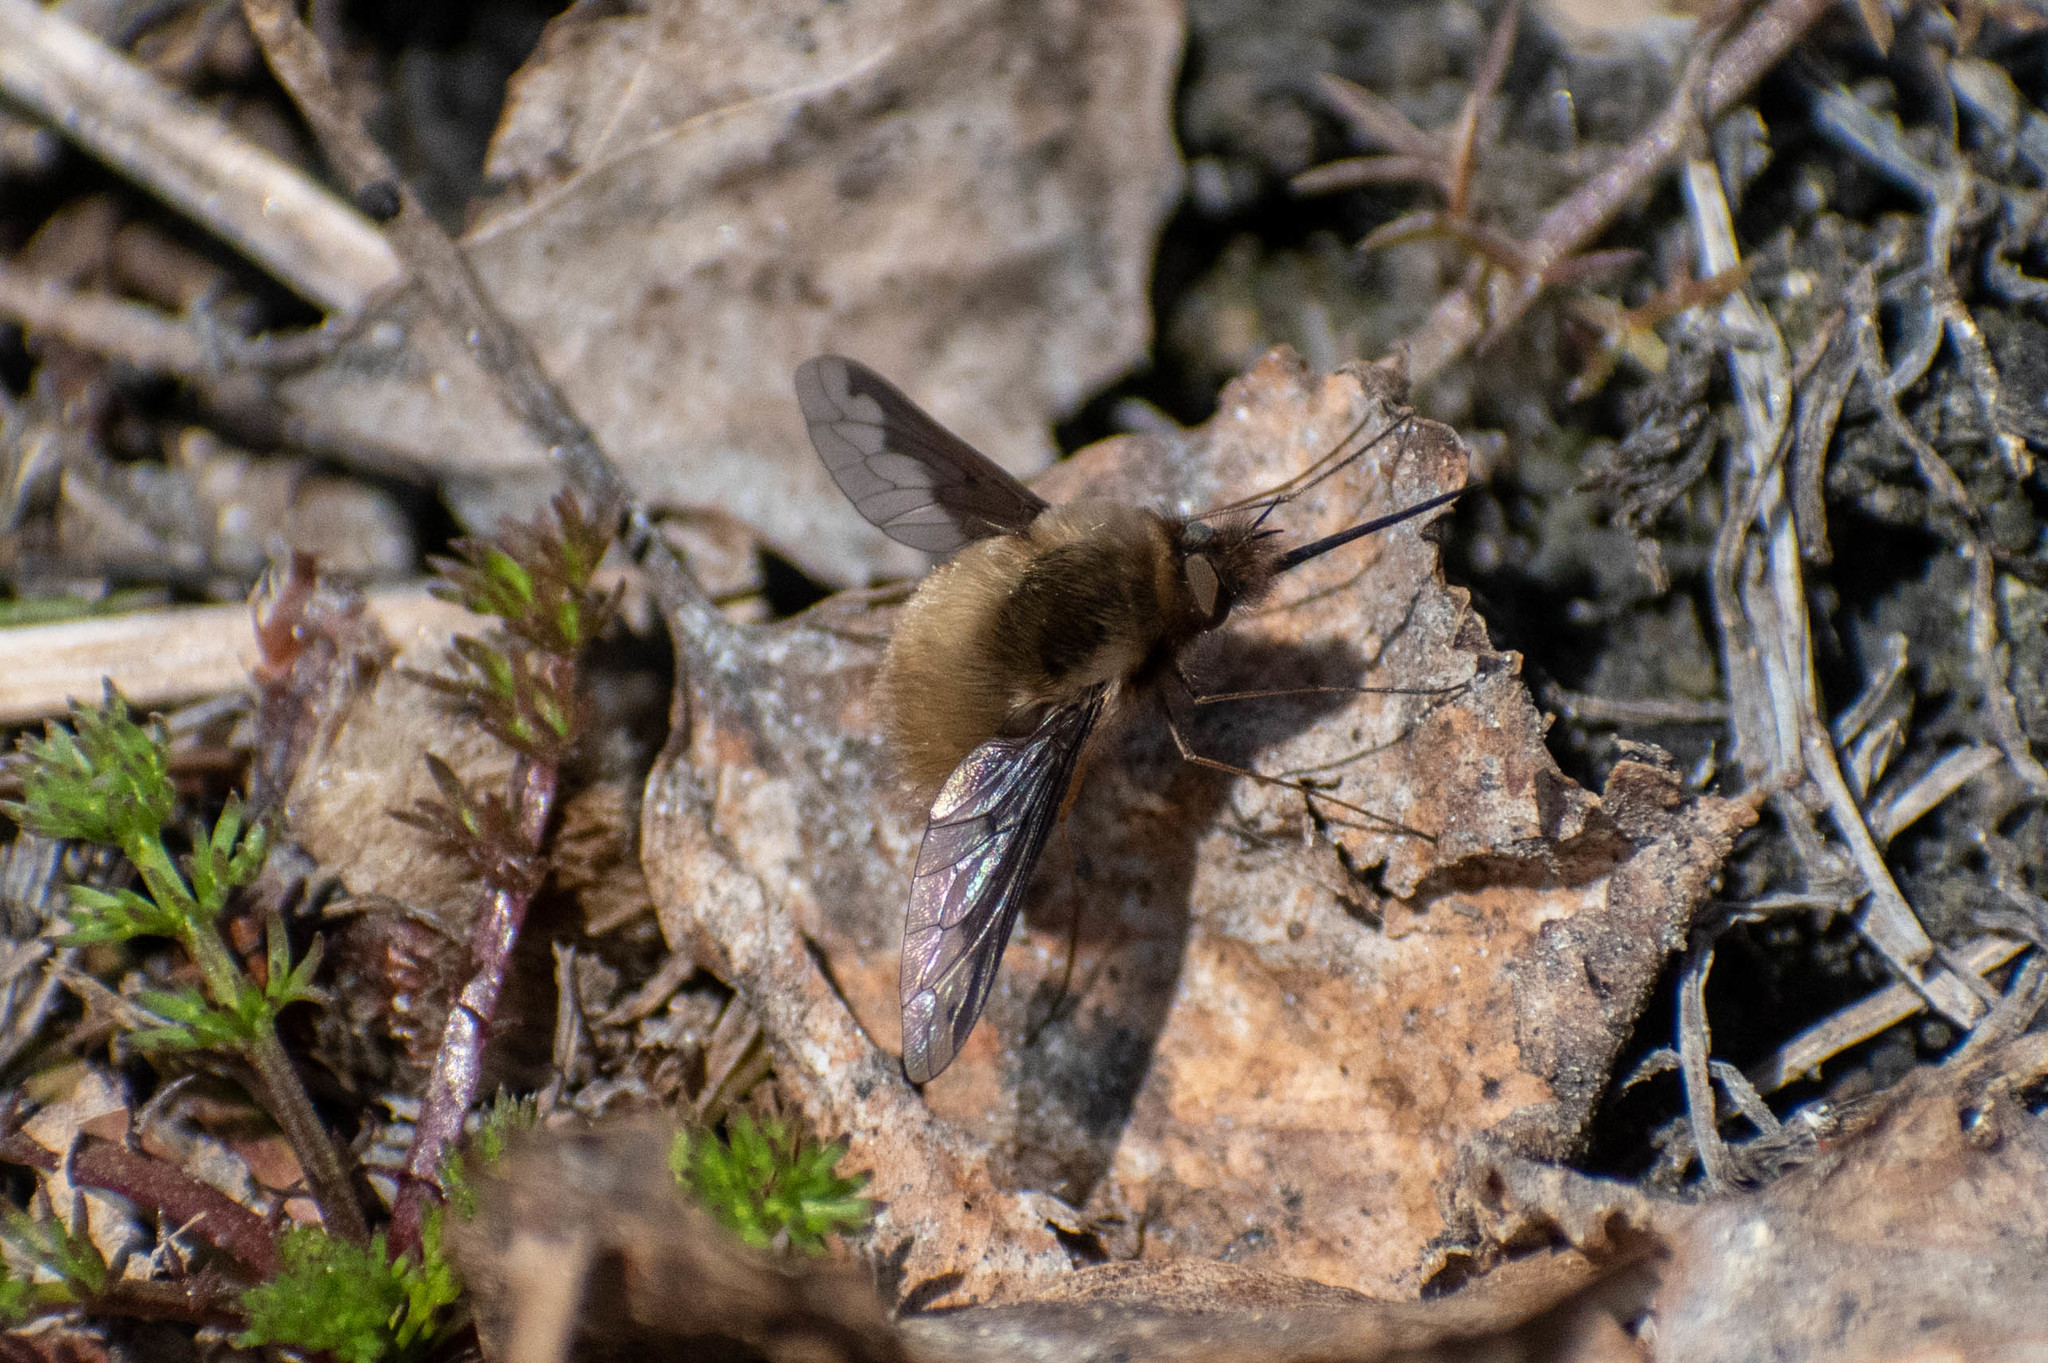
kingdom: Animalia
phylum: Arthropoda
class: Insecta
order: Diptera
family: Bombyliidae
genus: Bombylius
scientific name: Bombylius major
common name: Bee fly
